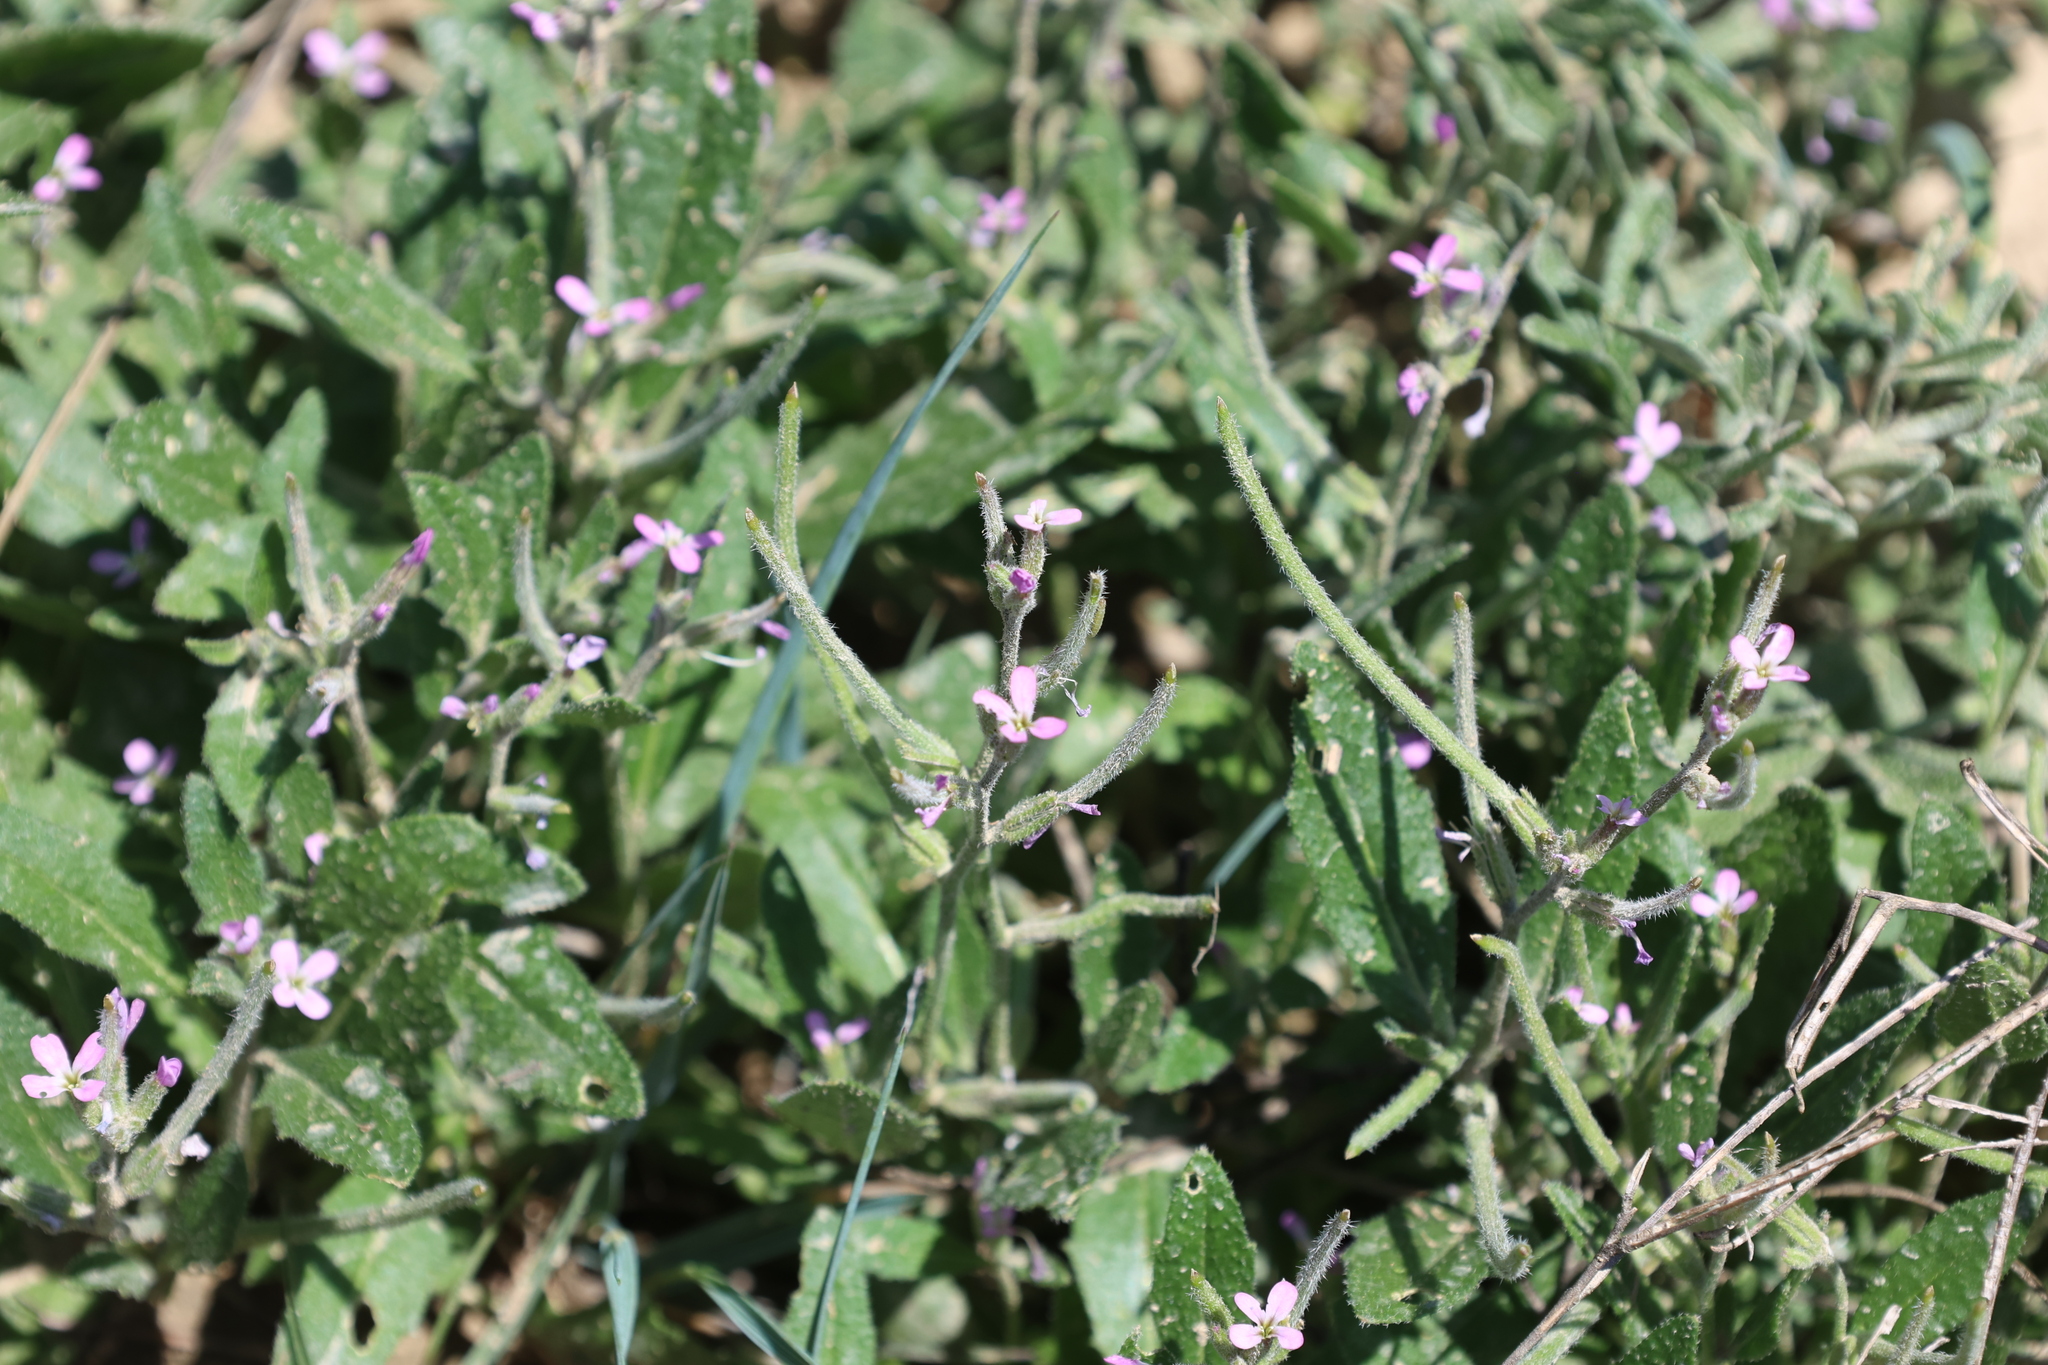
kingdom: Plantae
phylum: Tracheophyta
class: Magnoliopsida
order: Brassicales
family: Brassicaceae
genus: Strigosella
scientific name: Strigosella africana
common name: African mustard
